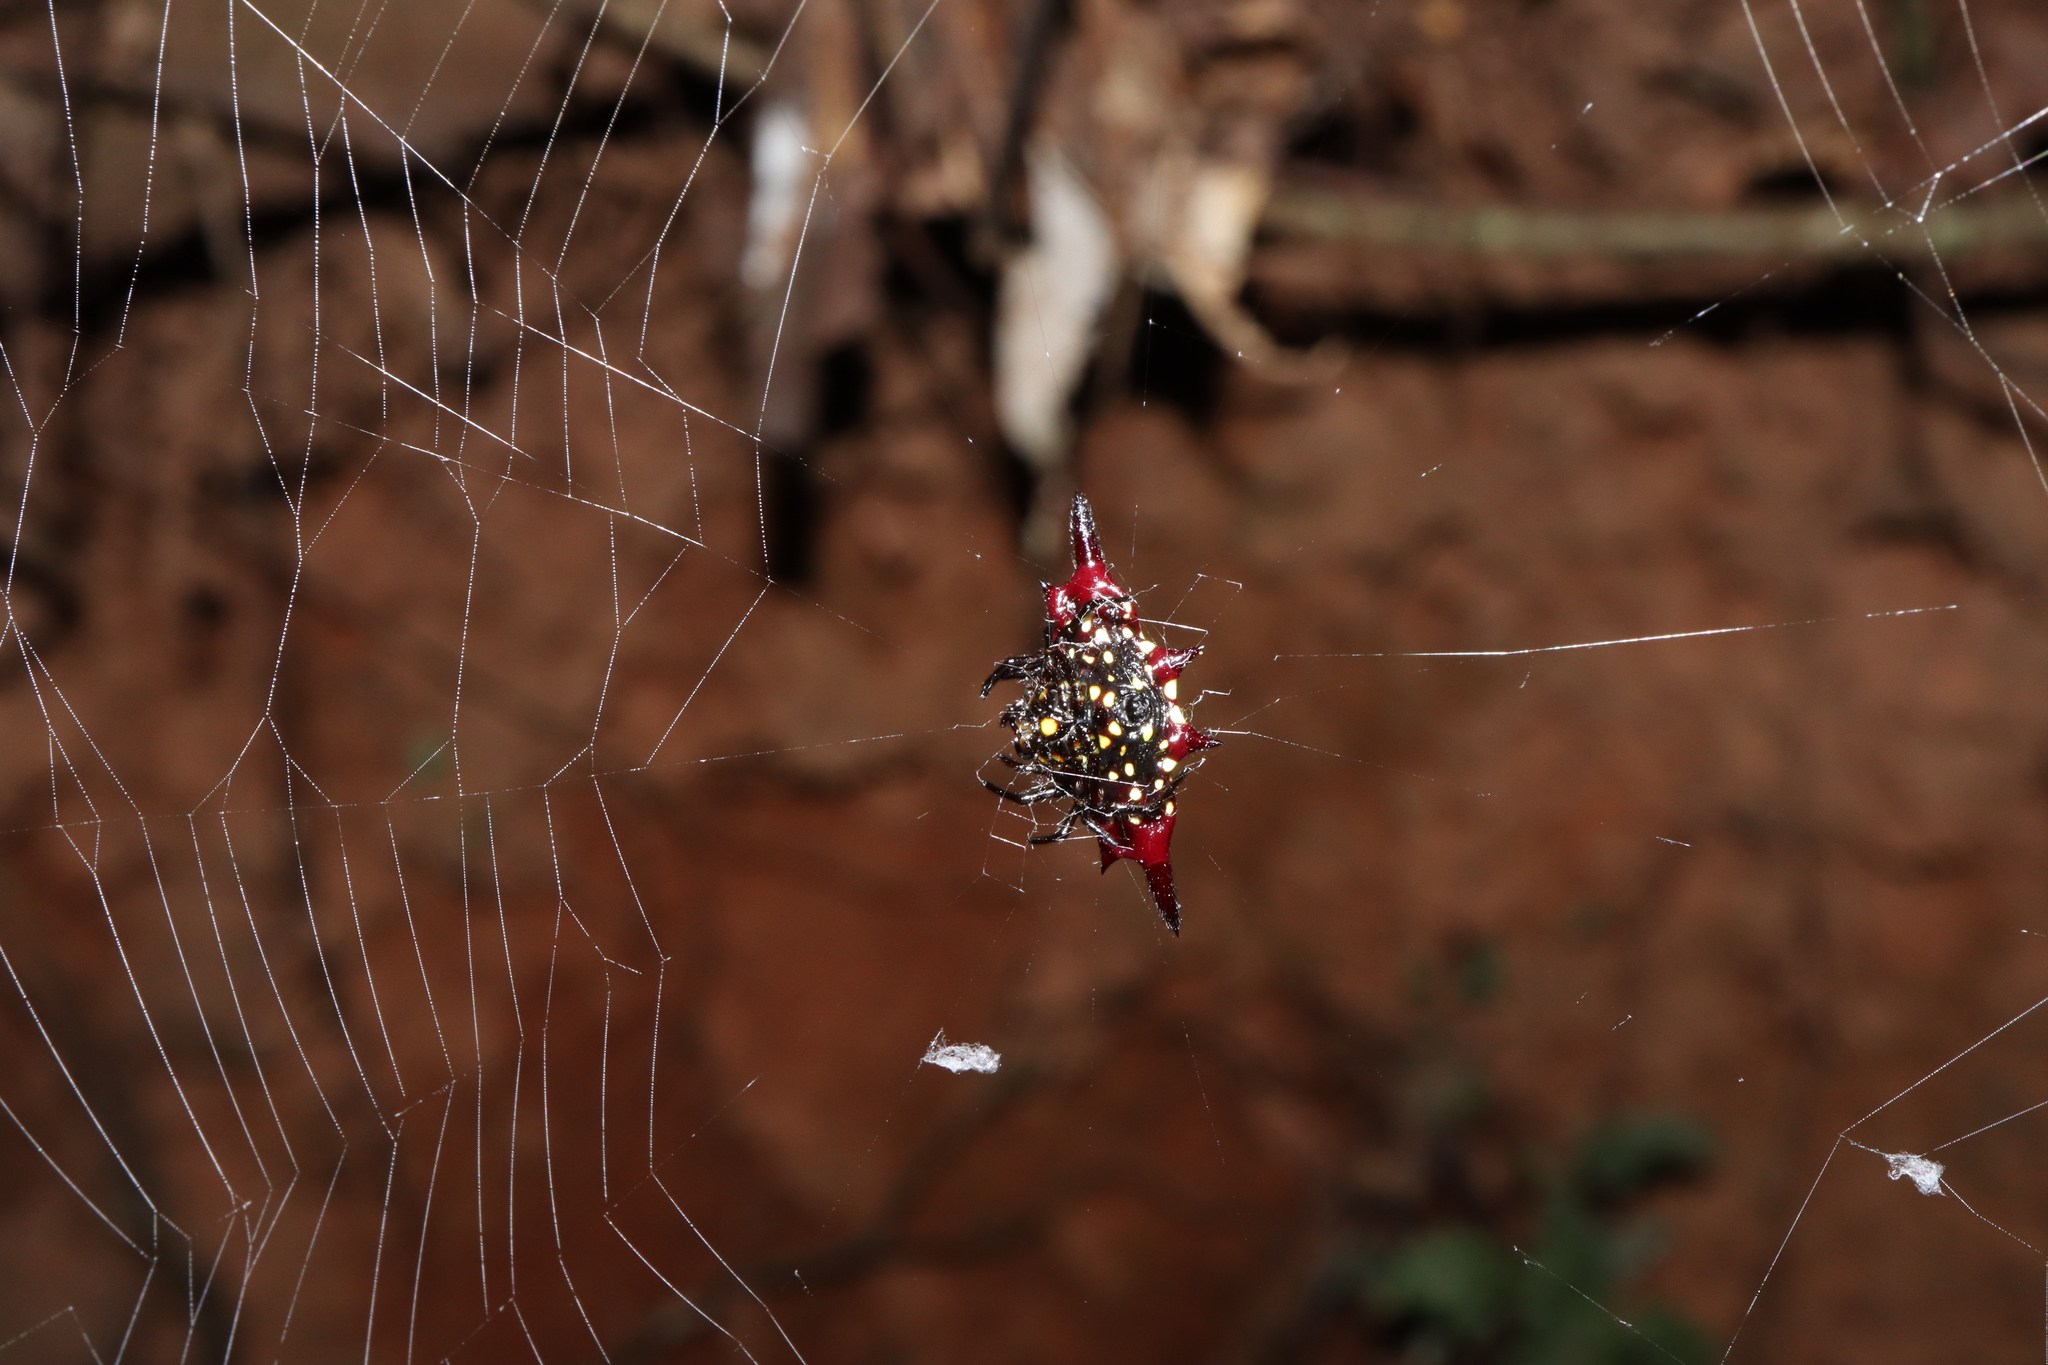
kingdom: Animalia
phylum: Arthropoda
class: Arachnida
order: Araneae
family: Araneidae
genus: Gasteracantha
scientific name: Gasteracantha fornicata
